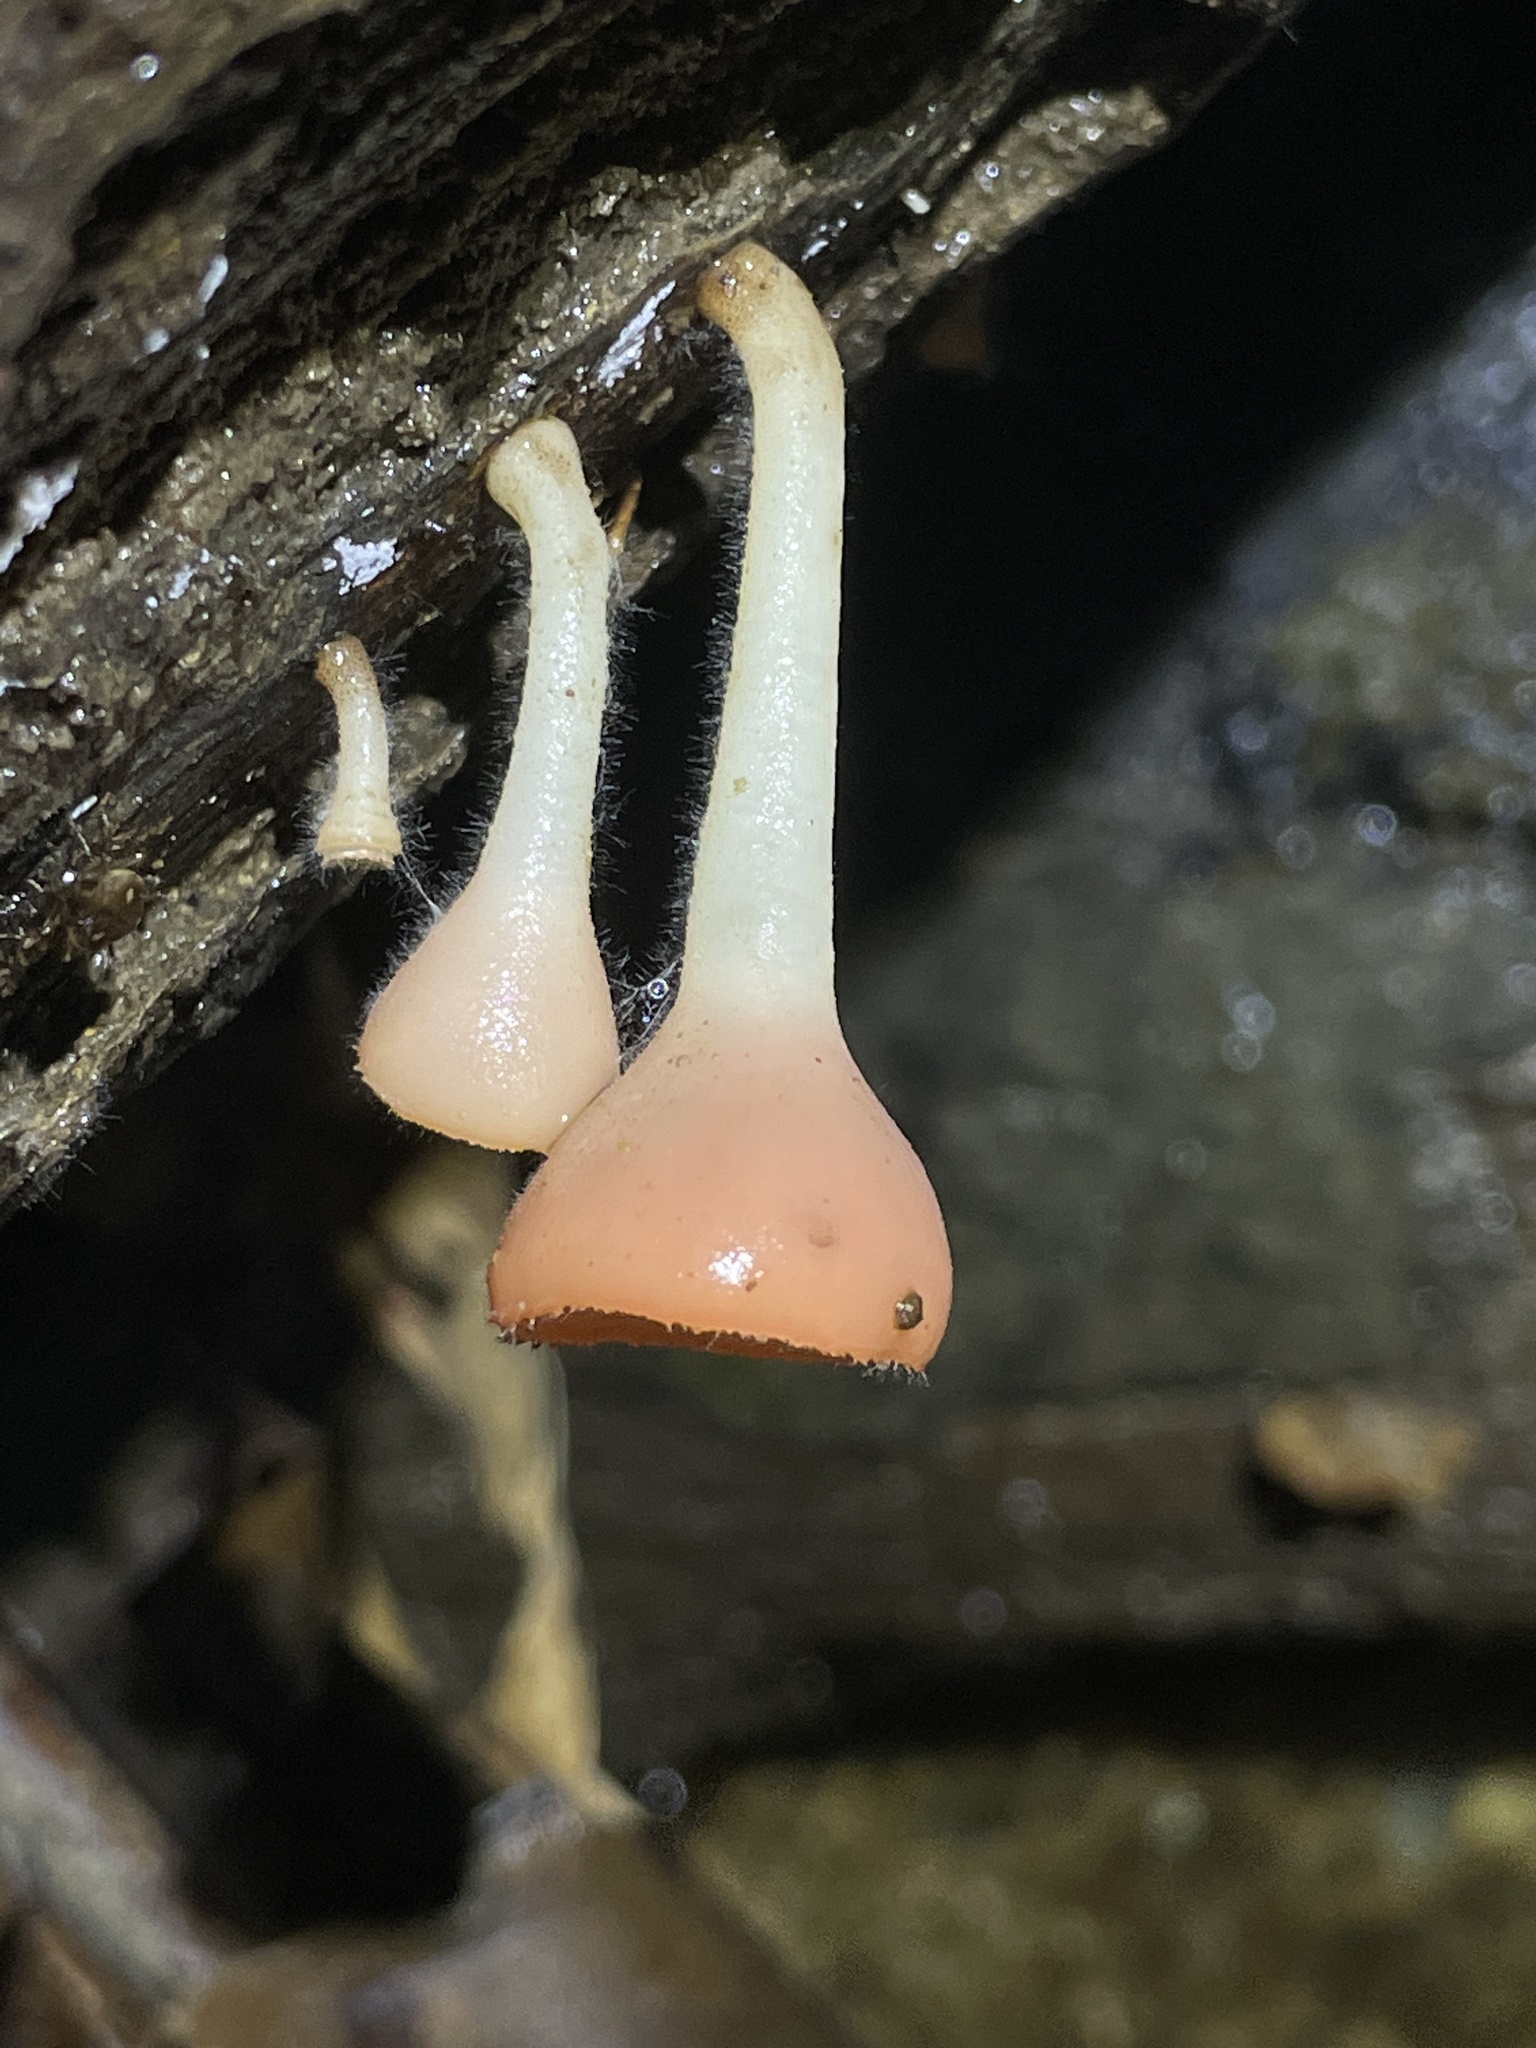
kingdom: Fungi
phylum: Ascomycota
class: Pezizomycetes
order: Pezizales
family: Sarcoscyphaceae
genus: Cookeina
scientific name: Cookeina speciosa
